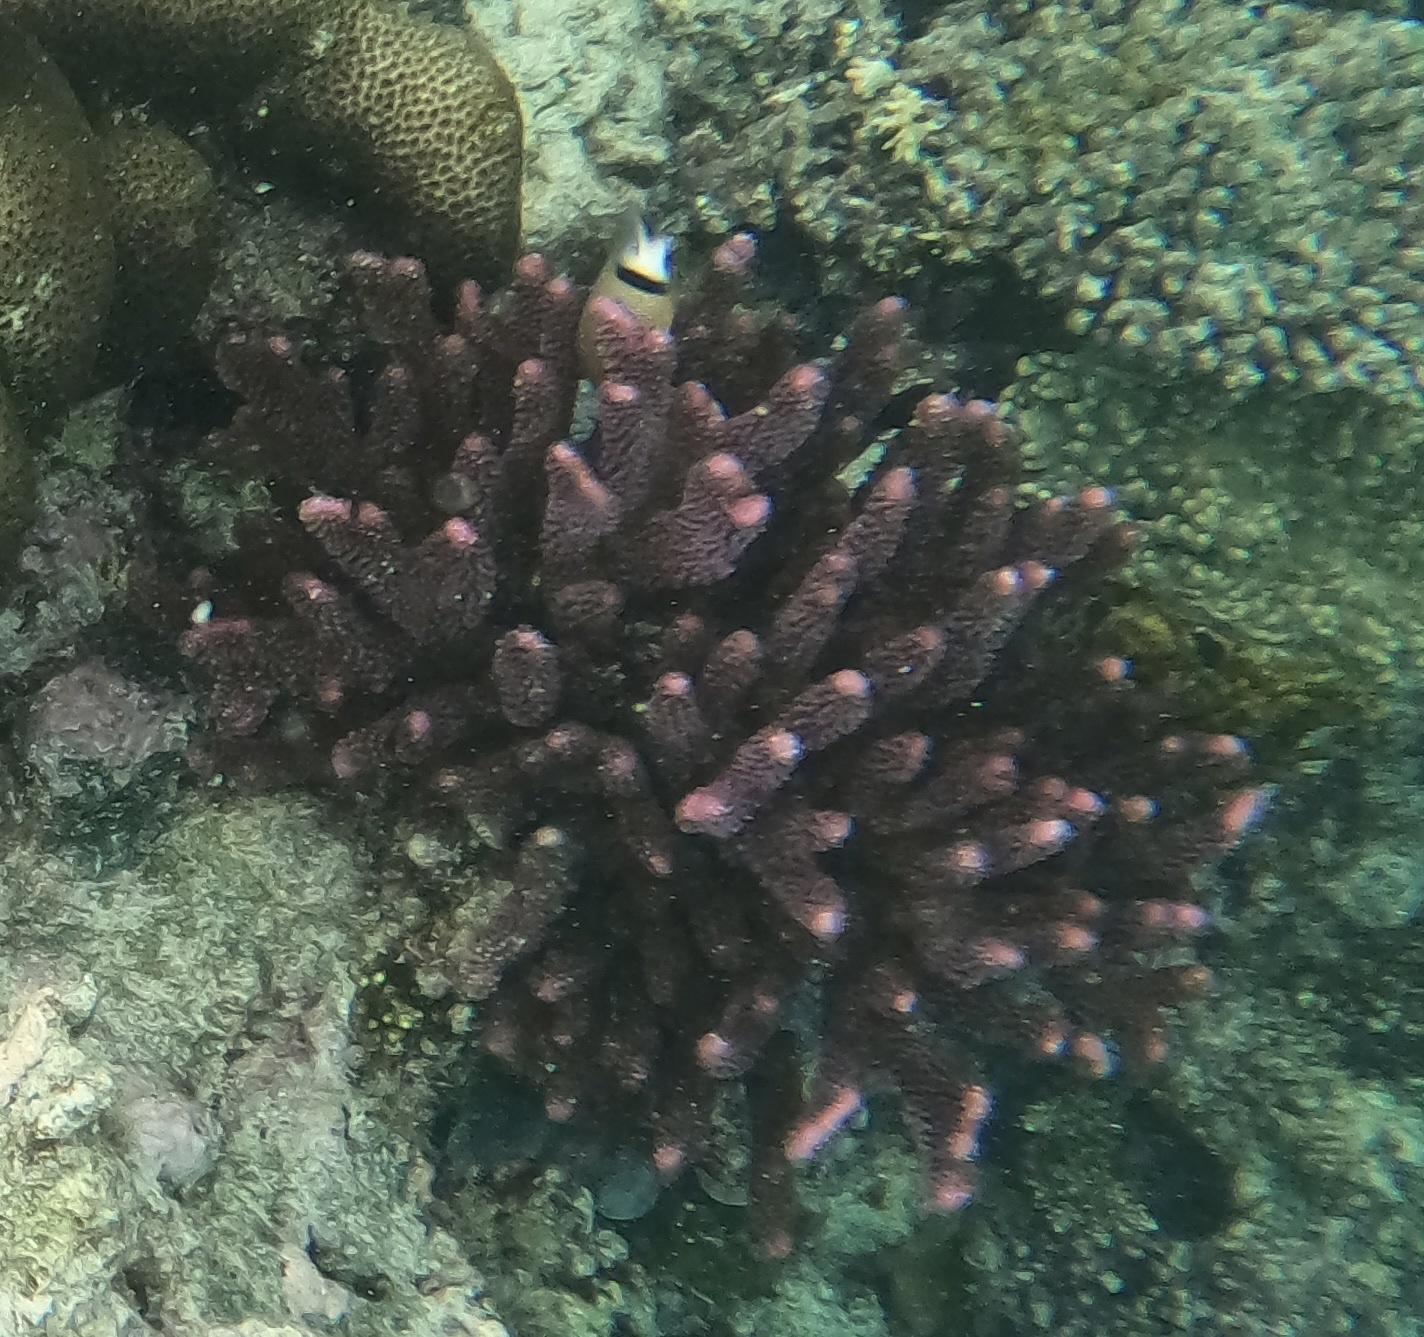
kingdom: Animalia
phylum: Cnidaria
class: Anthozoa
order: Scleractinia
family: Pocilloporidae
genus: Pocillopora
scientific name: Pocillopora grandis
